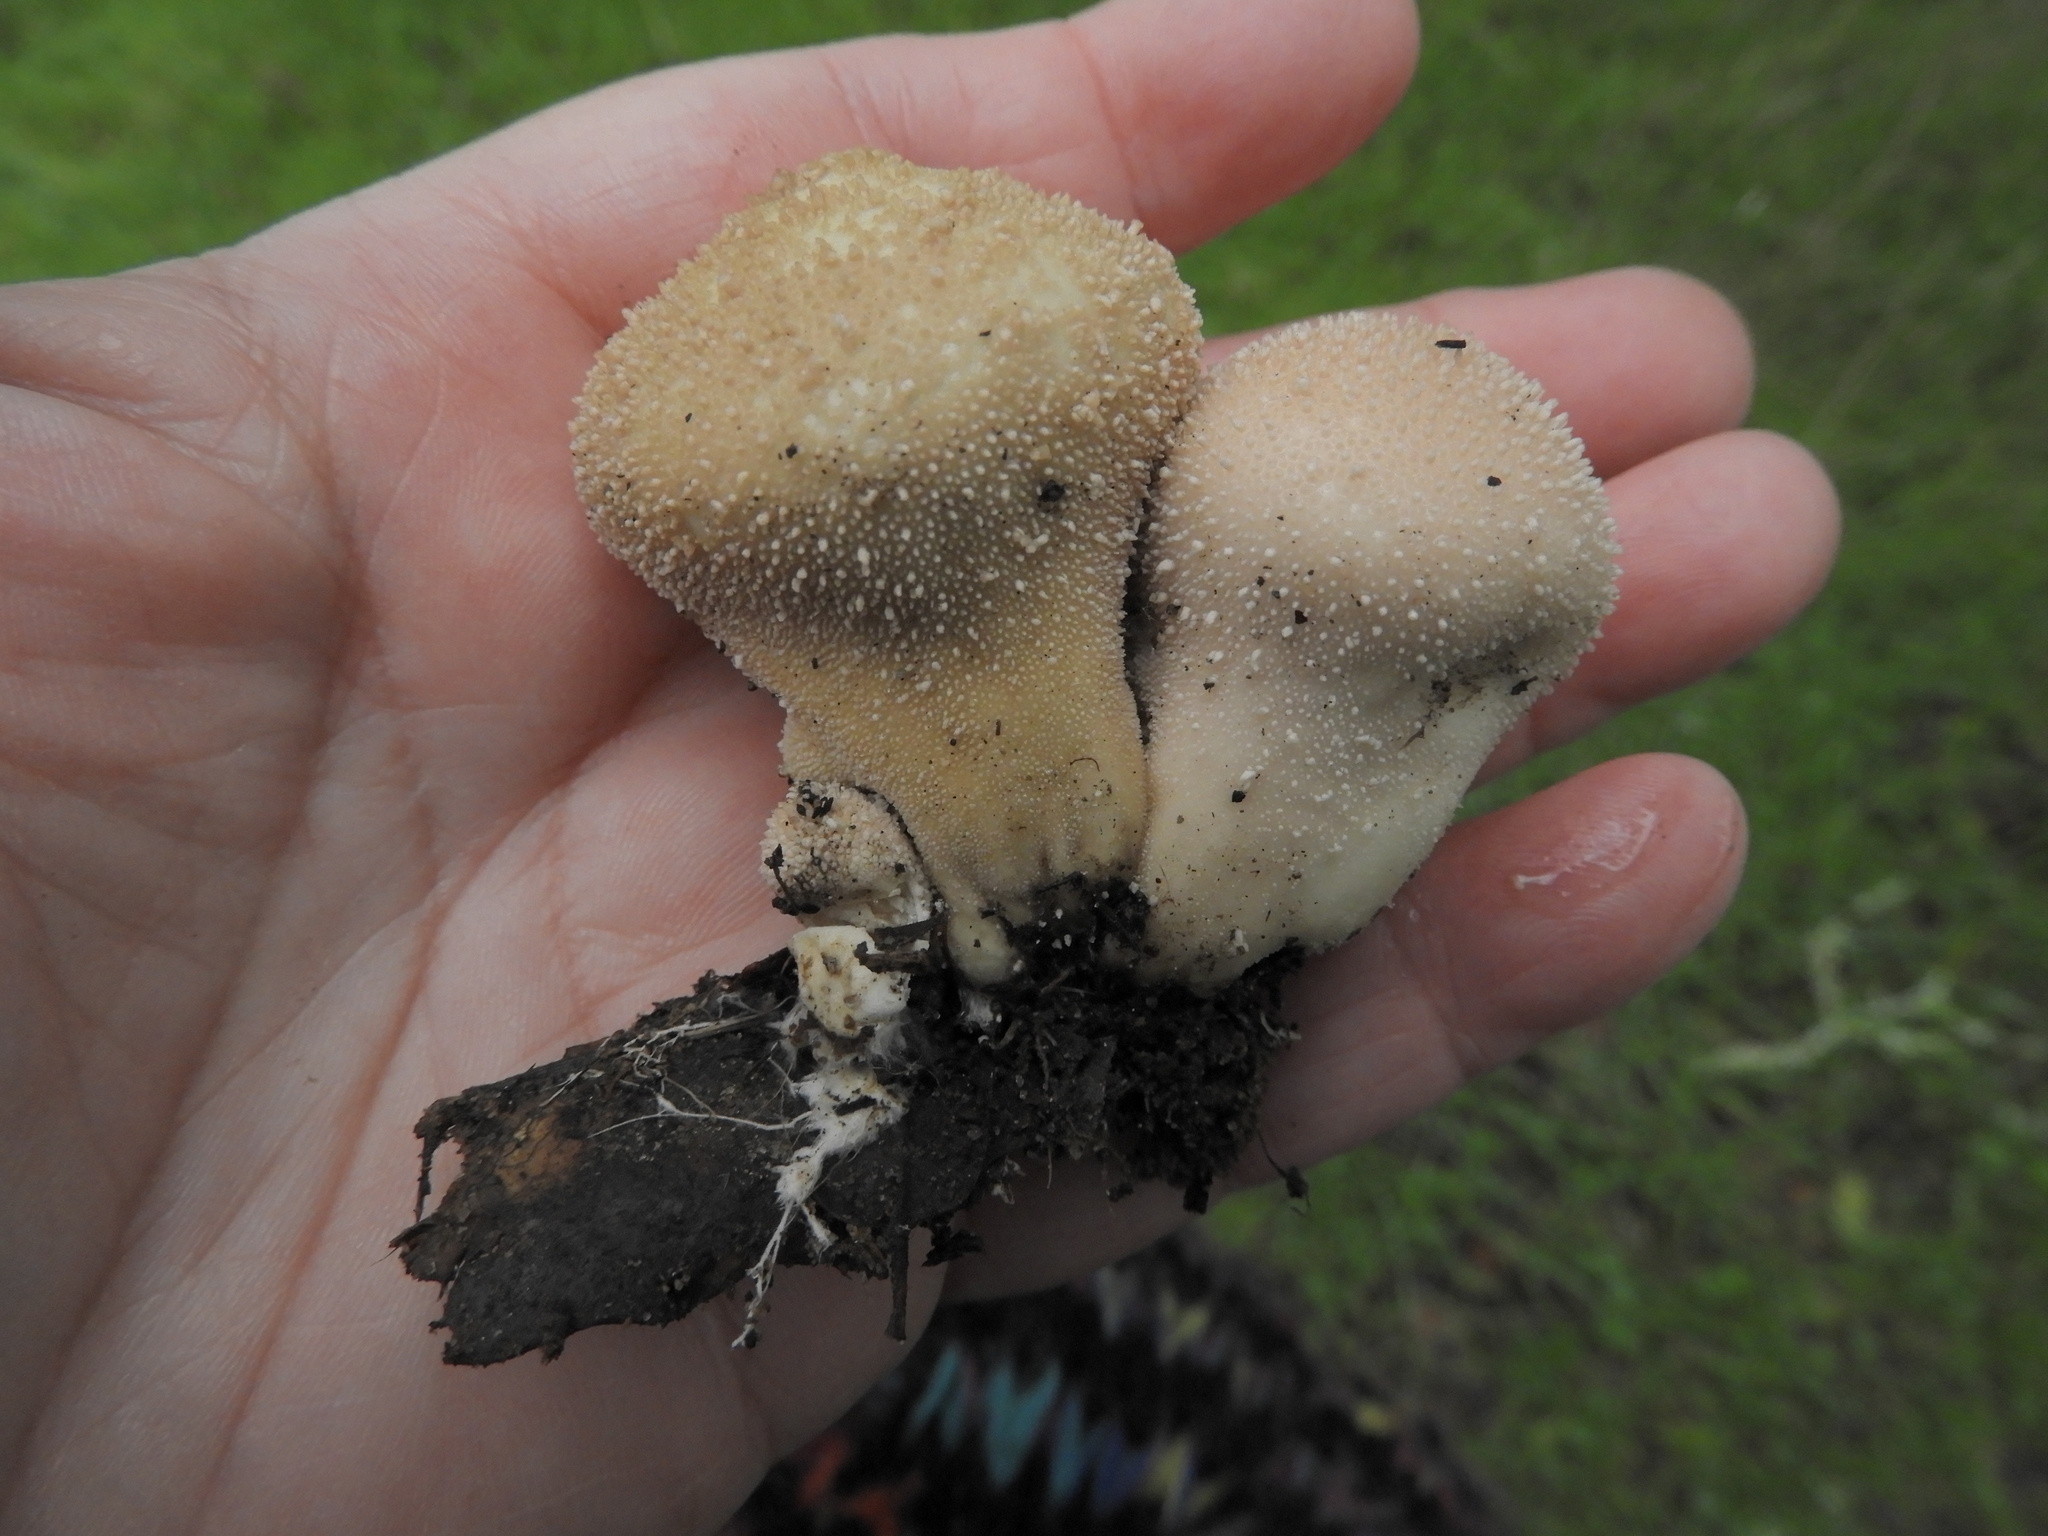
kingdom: Fungi
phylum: Basidiomycota
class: Agaricomycetes
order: Agaricales
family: Lycoperdaceae
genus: Lycoperdon
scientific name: Lycoperdon perlatum
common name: Common puffball
